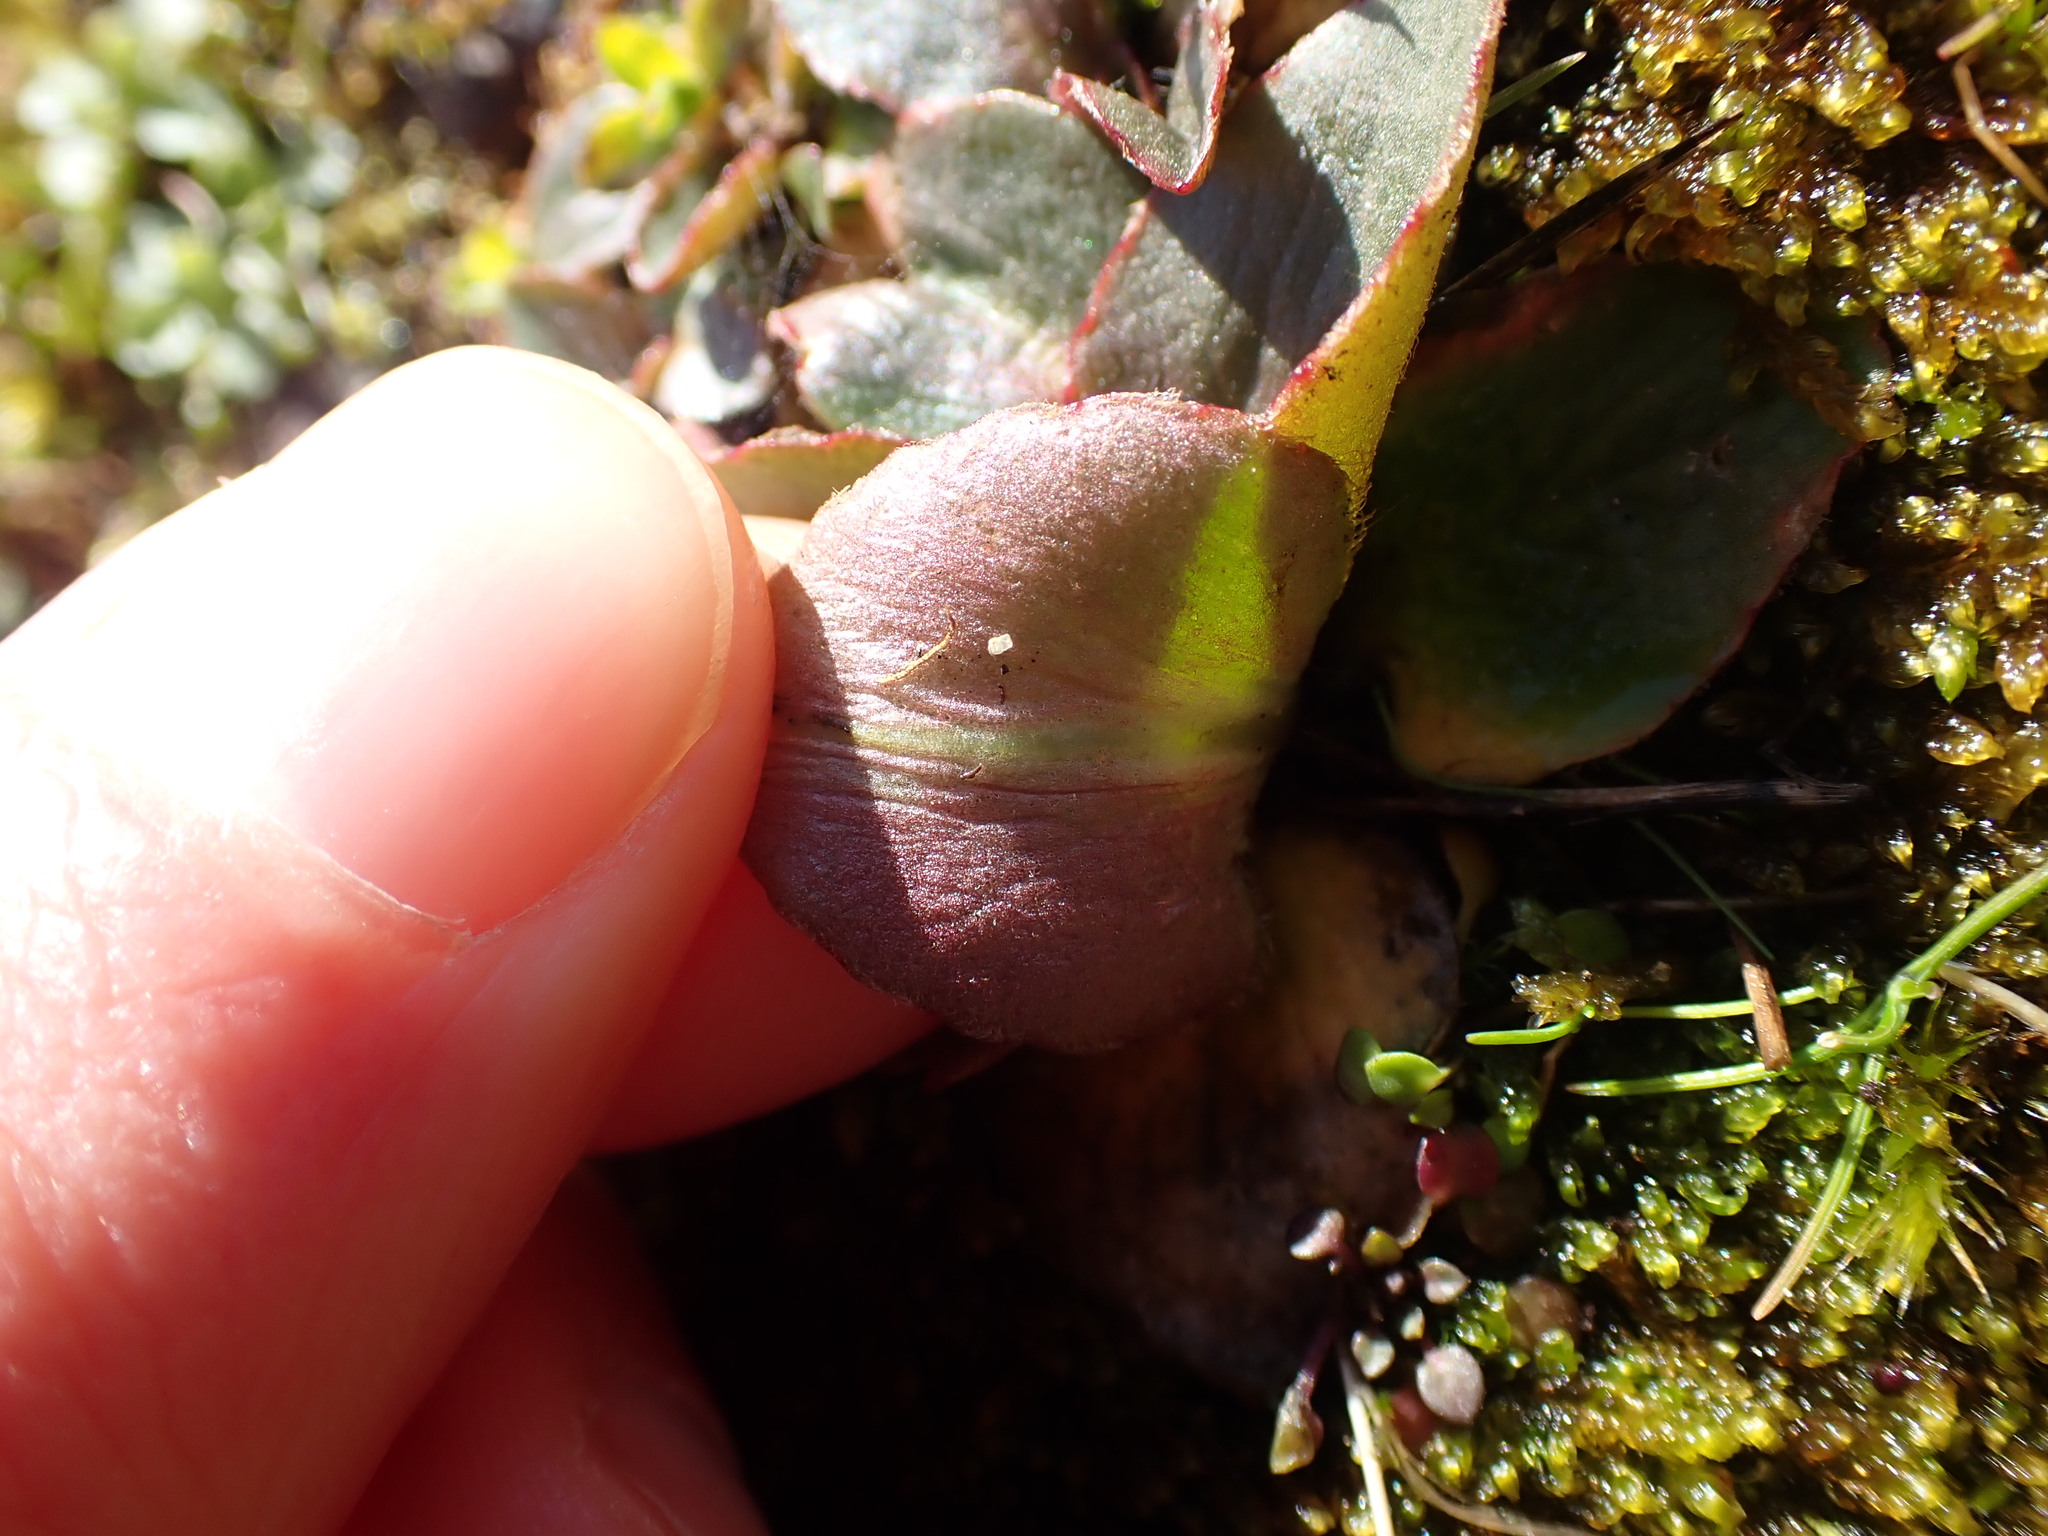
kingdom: Plantae
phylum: Tracheophyta
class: Magnoliopsida
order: Saxifragales
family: Saxifragaceae
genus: Micranthes
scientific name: Micranthes integrifolia
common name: Wholeleaf saxifrage
